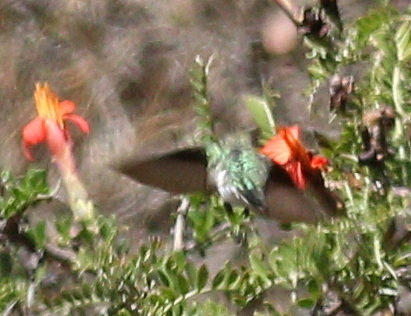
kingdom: Animalia
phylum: Chordata
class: Aves
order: Apodiformes
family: Trochilidae
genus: Polyonymus
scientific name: Polyonymus caroli
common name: Bronze-tailed comet
